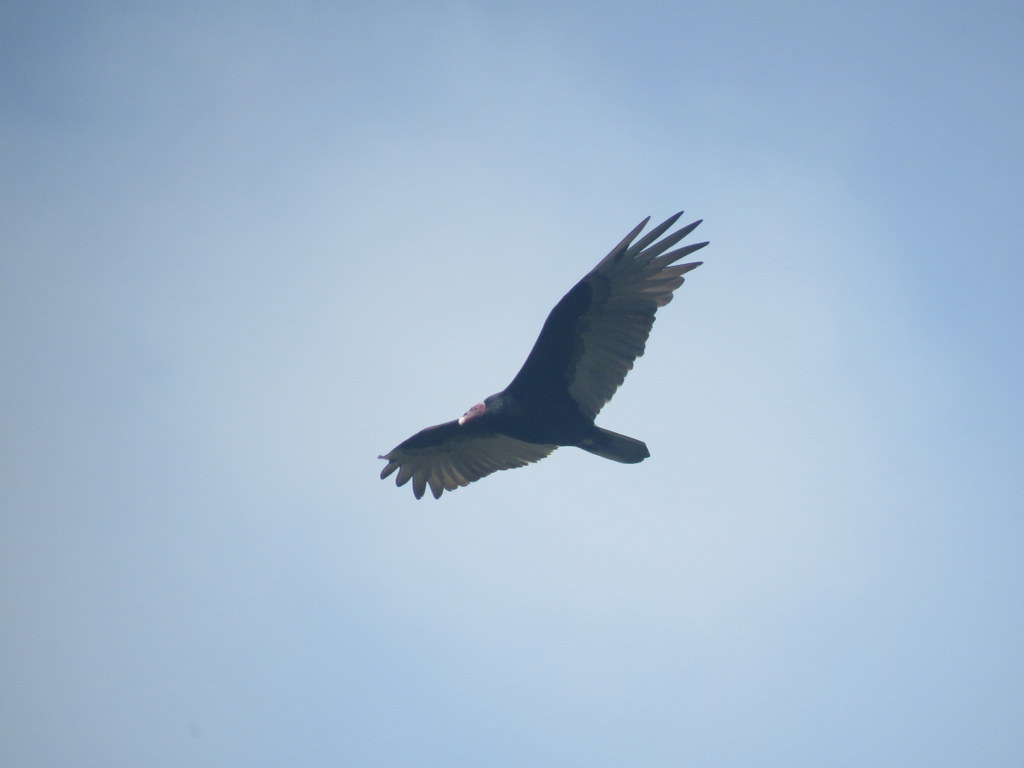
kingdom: Animalia
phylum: Chordata
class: Aves
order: Accipitriformes
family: Cathartidae
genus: Cathartes
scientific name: Cathartes aura
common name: Turkey vulture
